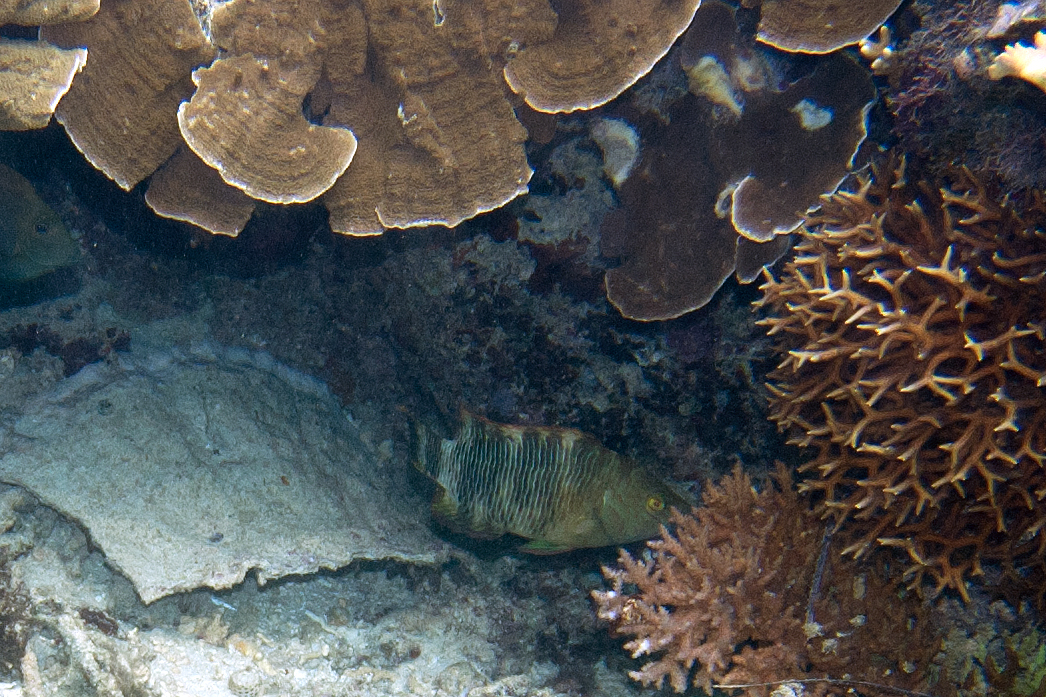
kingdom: Animalia
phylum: Cnidaria
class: Anthozoa
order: Scleractinia
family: Pocilloporidae
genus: Seriatopora
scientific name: Seriatopora hystrix
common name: Bush coral
